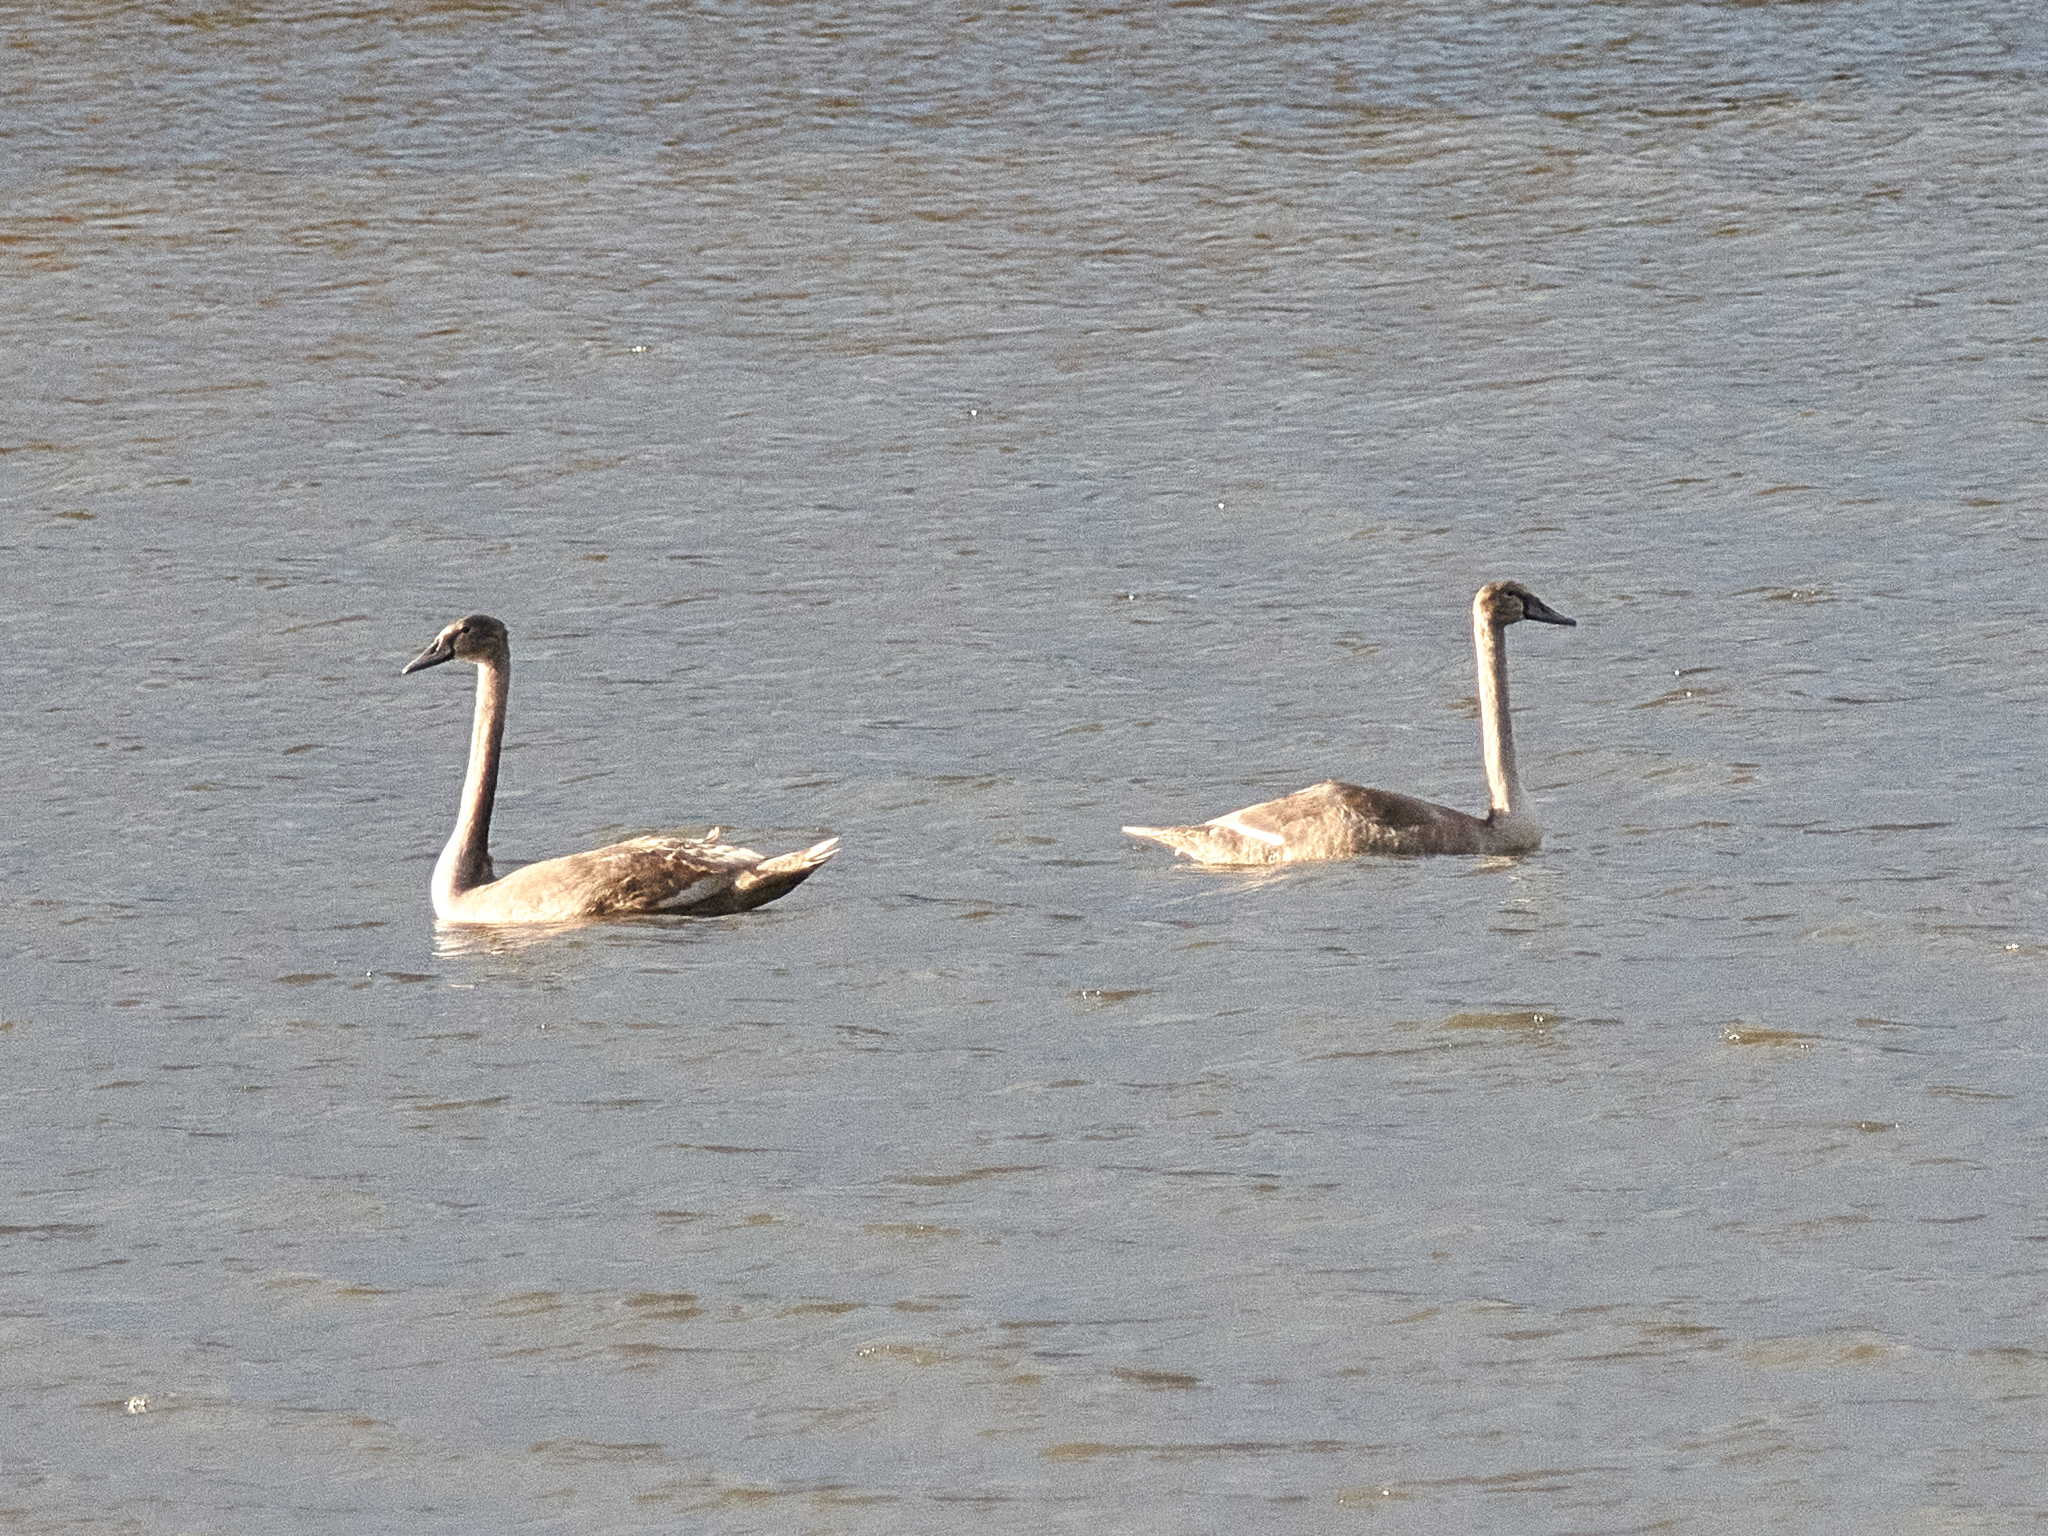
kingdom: Animalia
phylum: Chordata
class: Aves
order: Anseriformes
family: Anatidae
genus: Cygnus
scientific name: Cygnus olor
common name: Mute swan
